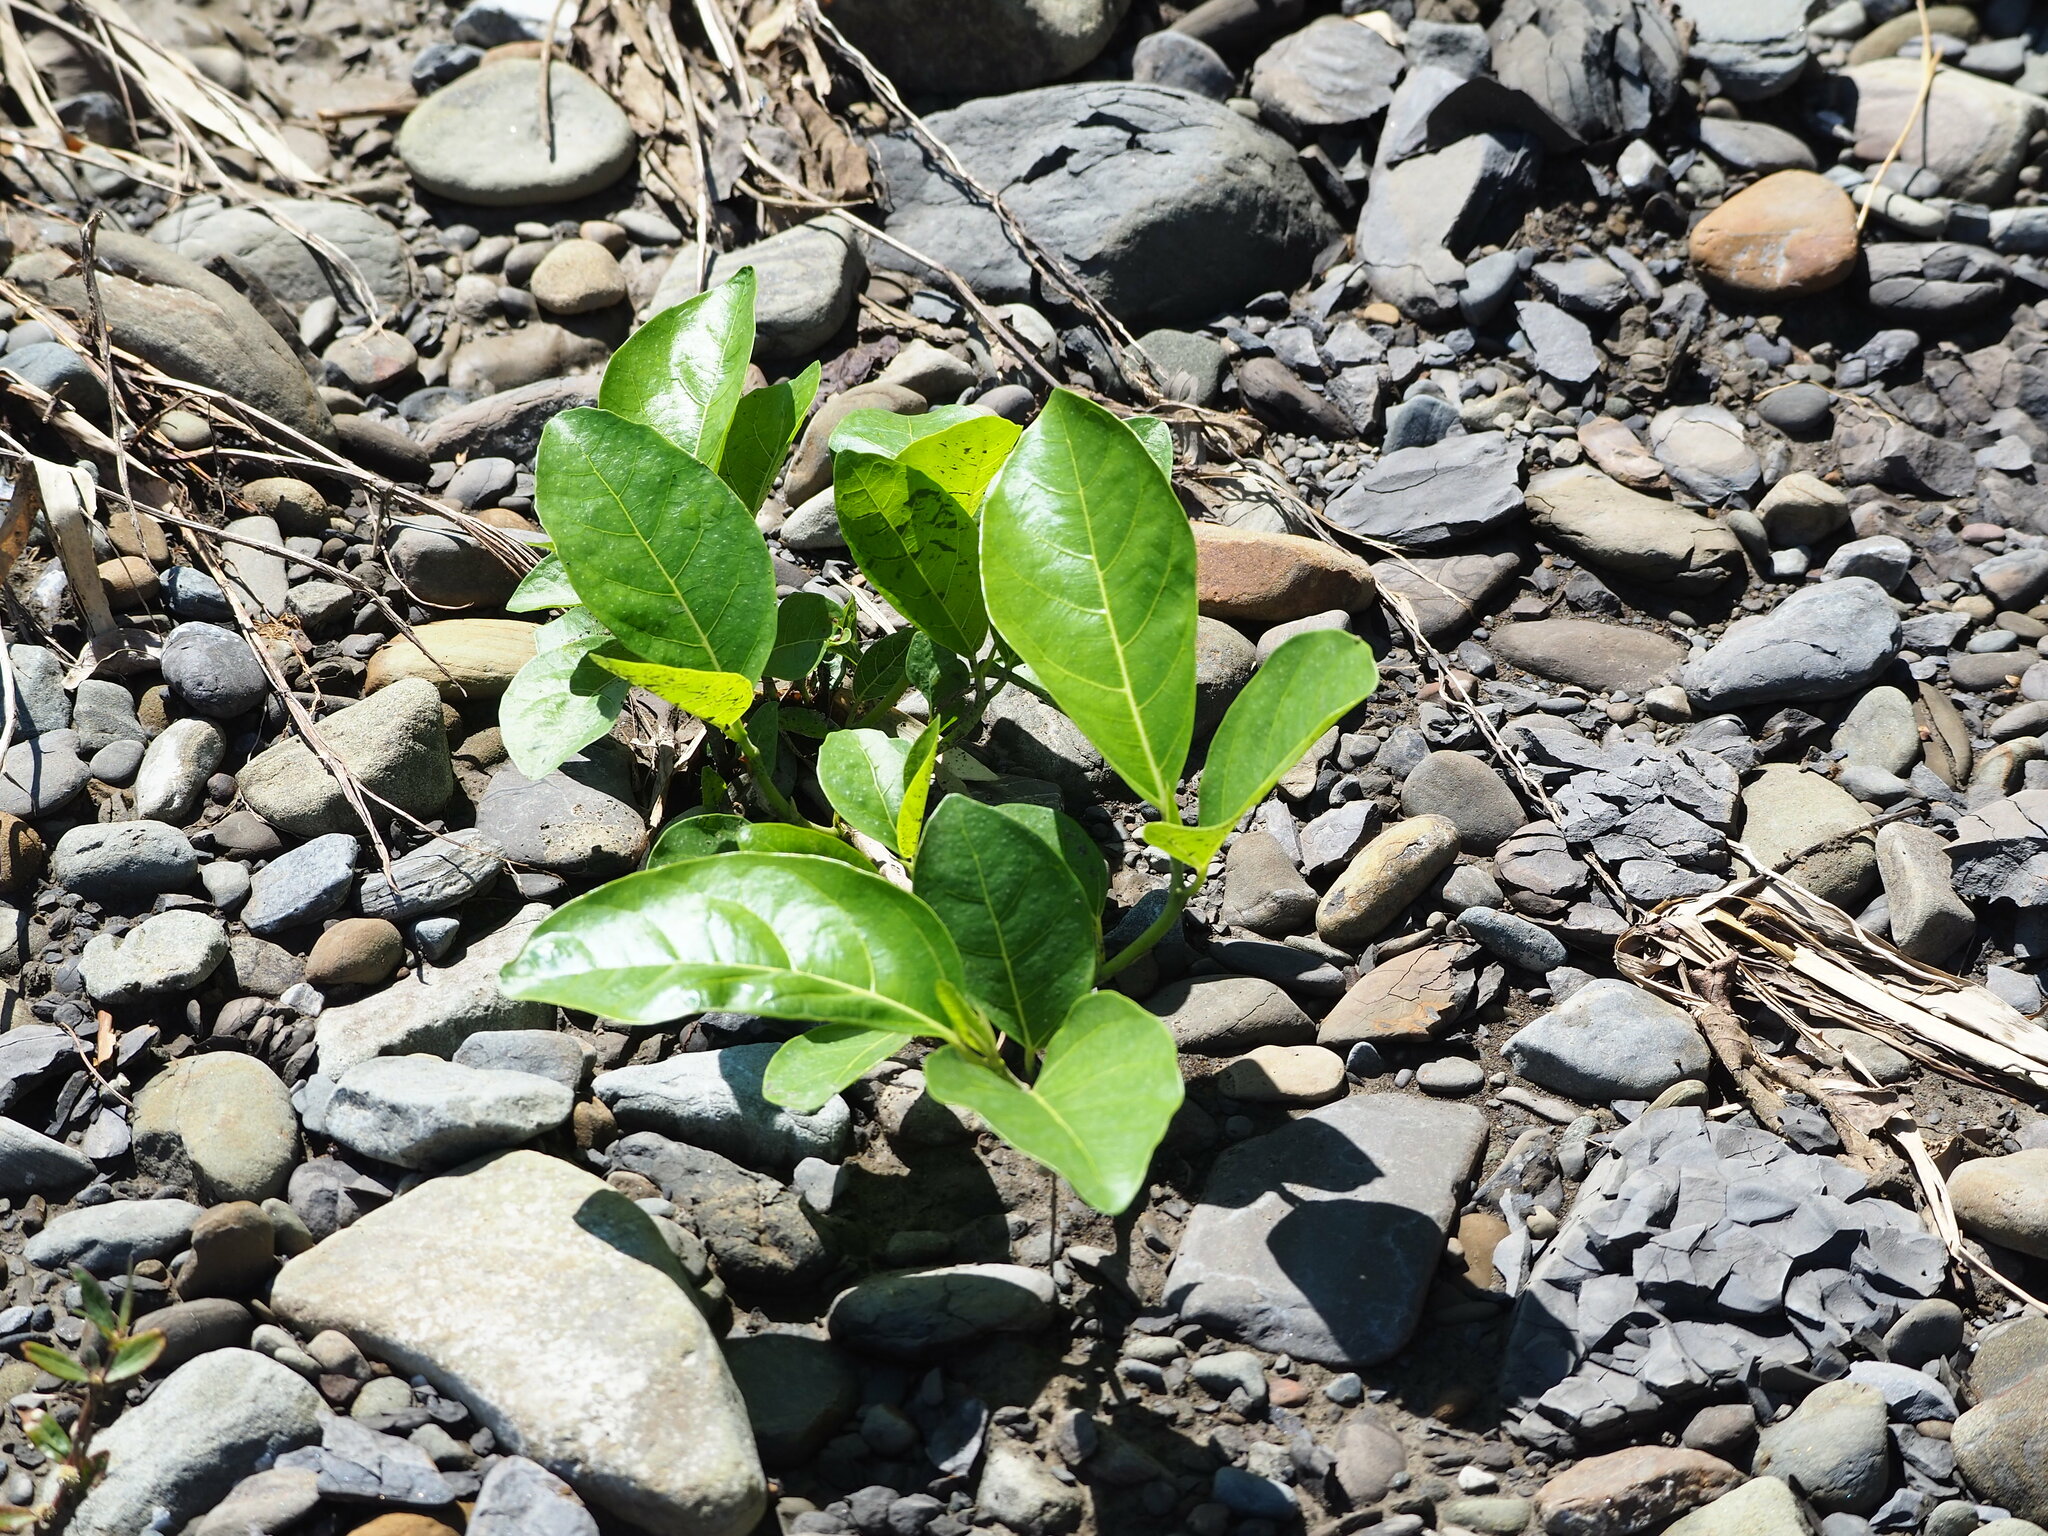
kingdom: Plantae
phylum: Tracheophyta
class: Magnoliopsida
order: Rosales
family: Moraceae
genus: Ficus
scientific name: Ficus septica
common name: Septic fig
